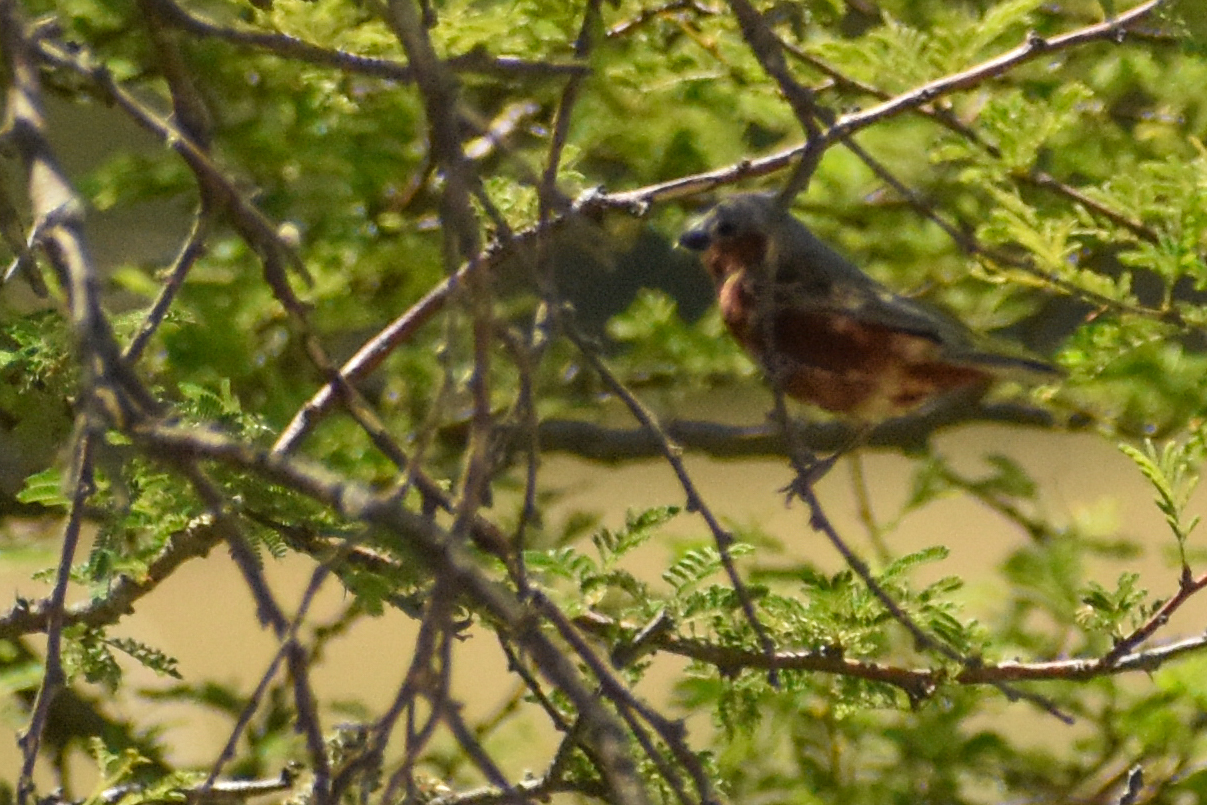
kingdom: Animalia
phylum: Chordata
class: Aves
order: Passeriformes
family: Thraupidae
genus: Sporophila
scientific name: Sporophila hypochroma
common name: Rufous-rumped seedeater
